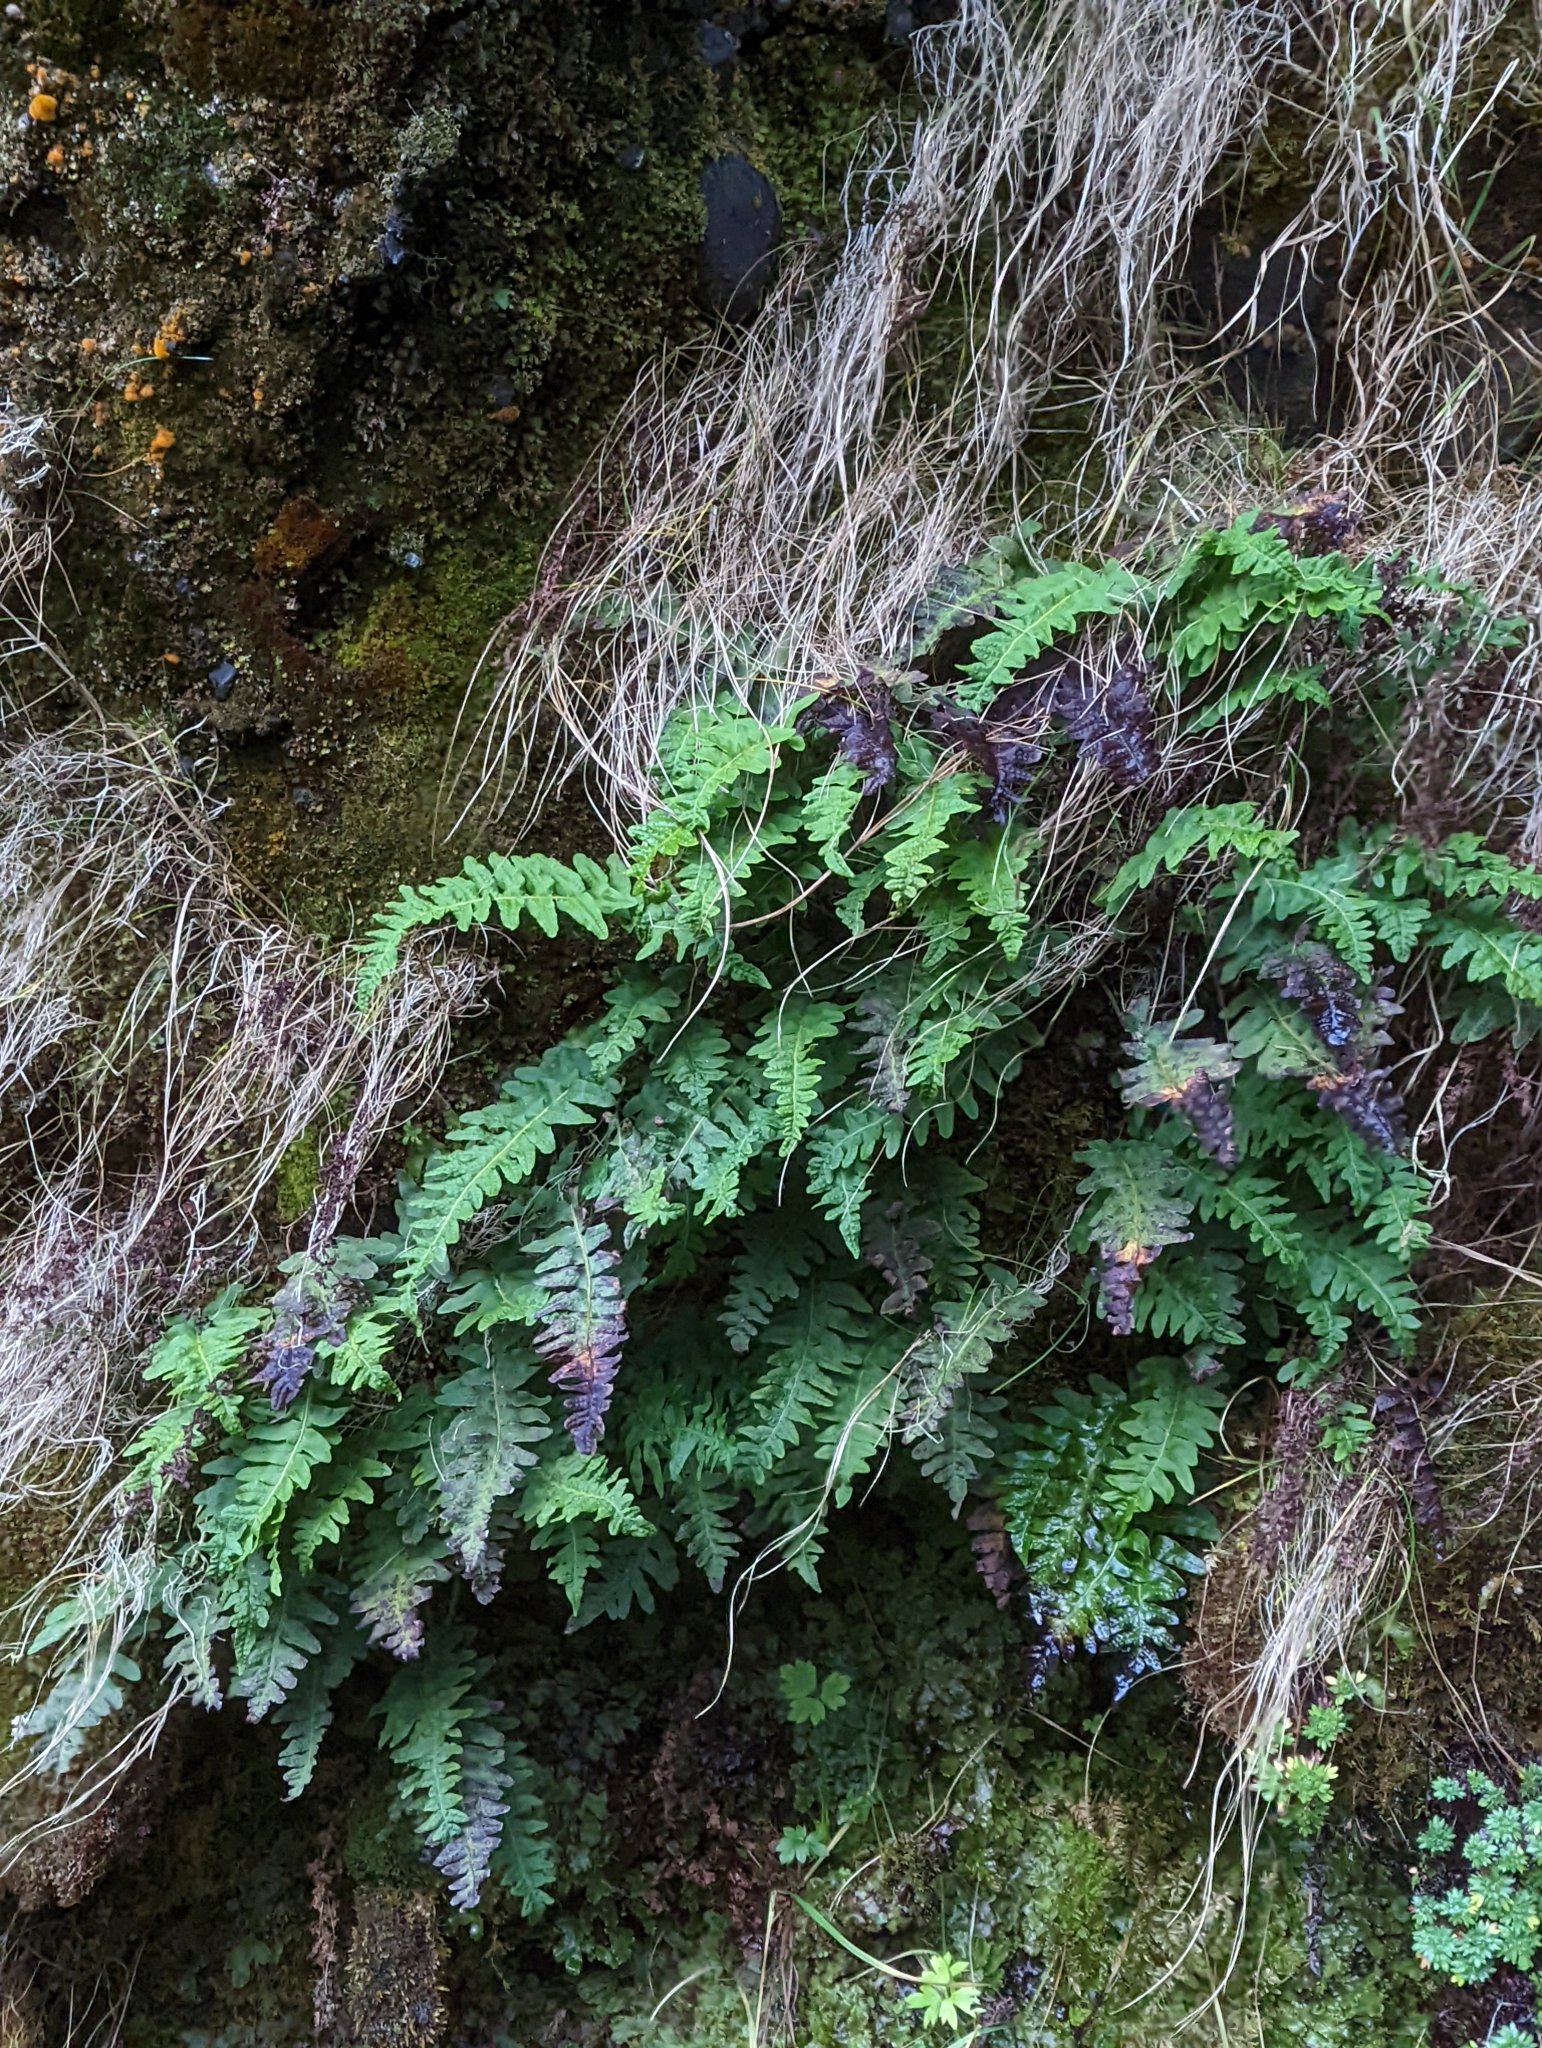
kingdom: Plantae
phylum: Tracheophyta
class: Polypodiopsida
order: Polypodiales
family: Polypodiaceae
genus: Polypodium
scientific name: Polypodium vulgare
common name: Common polypody
